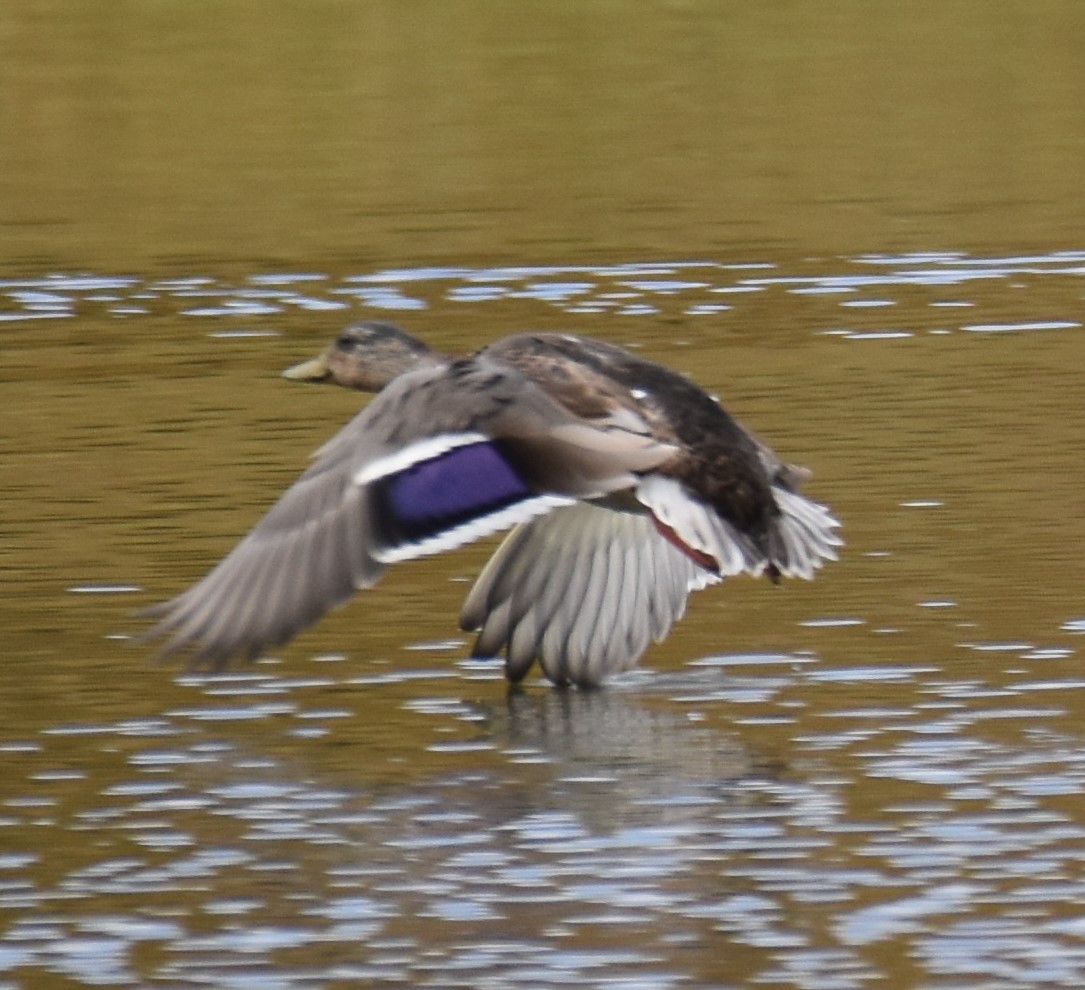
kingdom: Animalia
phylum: Chordata
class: Aves
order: Anseriformes
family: Anatidae
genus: Anas
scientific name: Anas platyrhynchos
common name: Mallard
